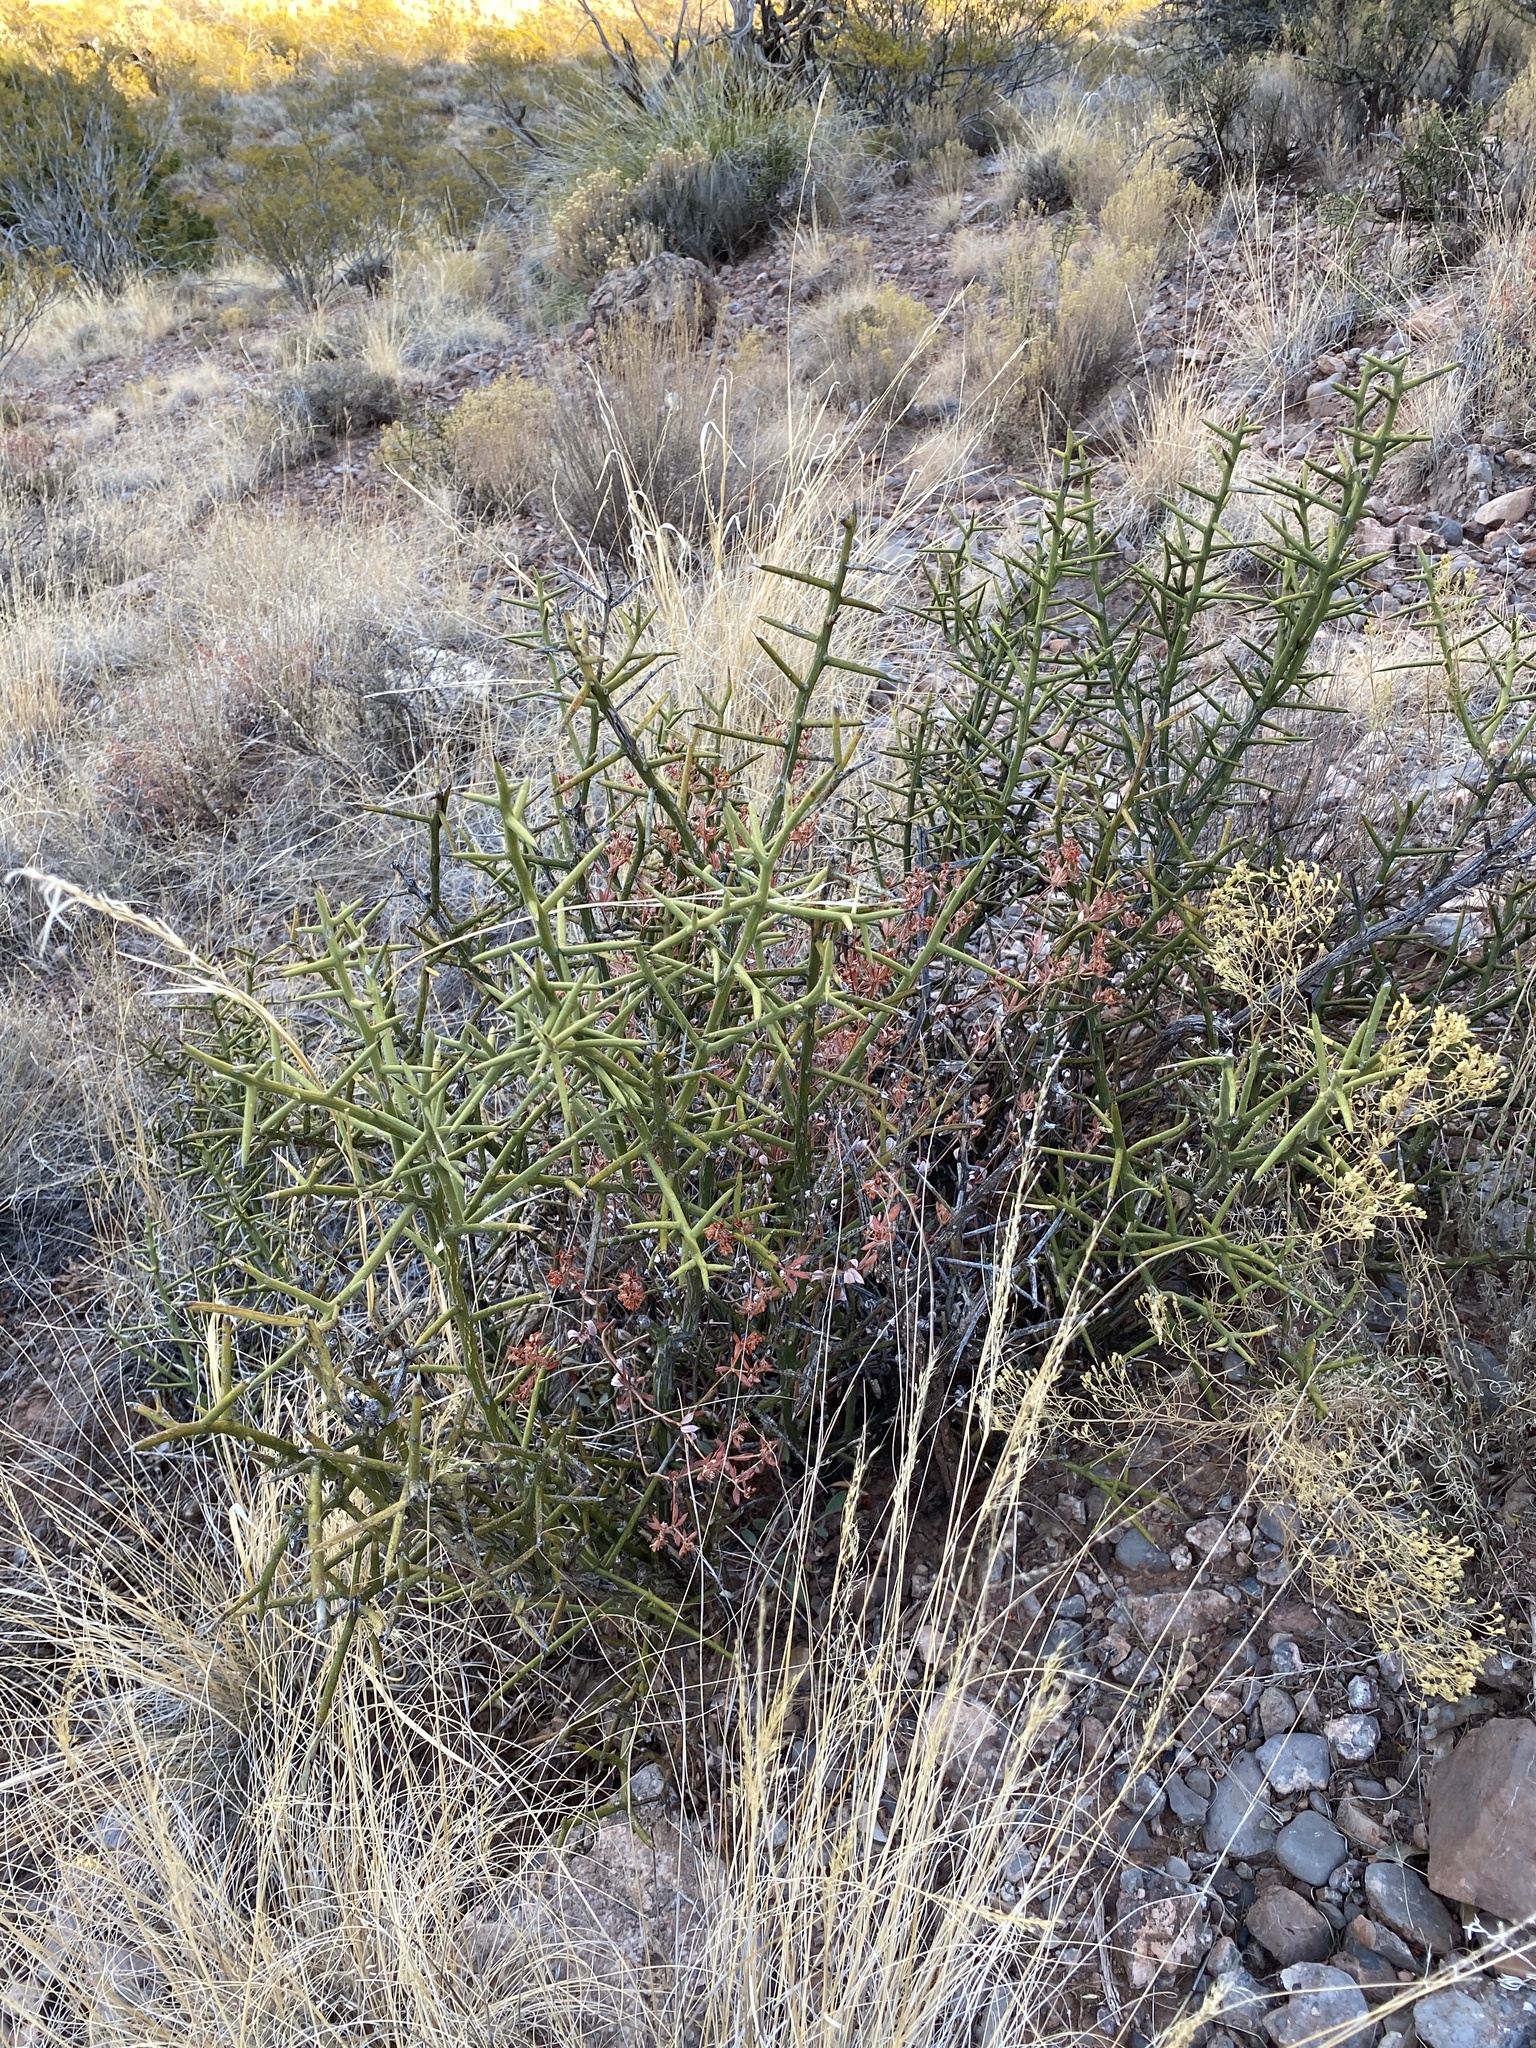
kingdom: Plantae
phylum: Tracheophyta
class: Magnoliopsida
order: Brassicales
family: Koeberliniaceae
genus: Koeberlinia
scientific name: Koeberlinia spinosa
